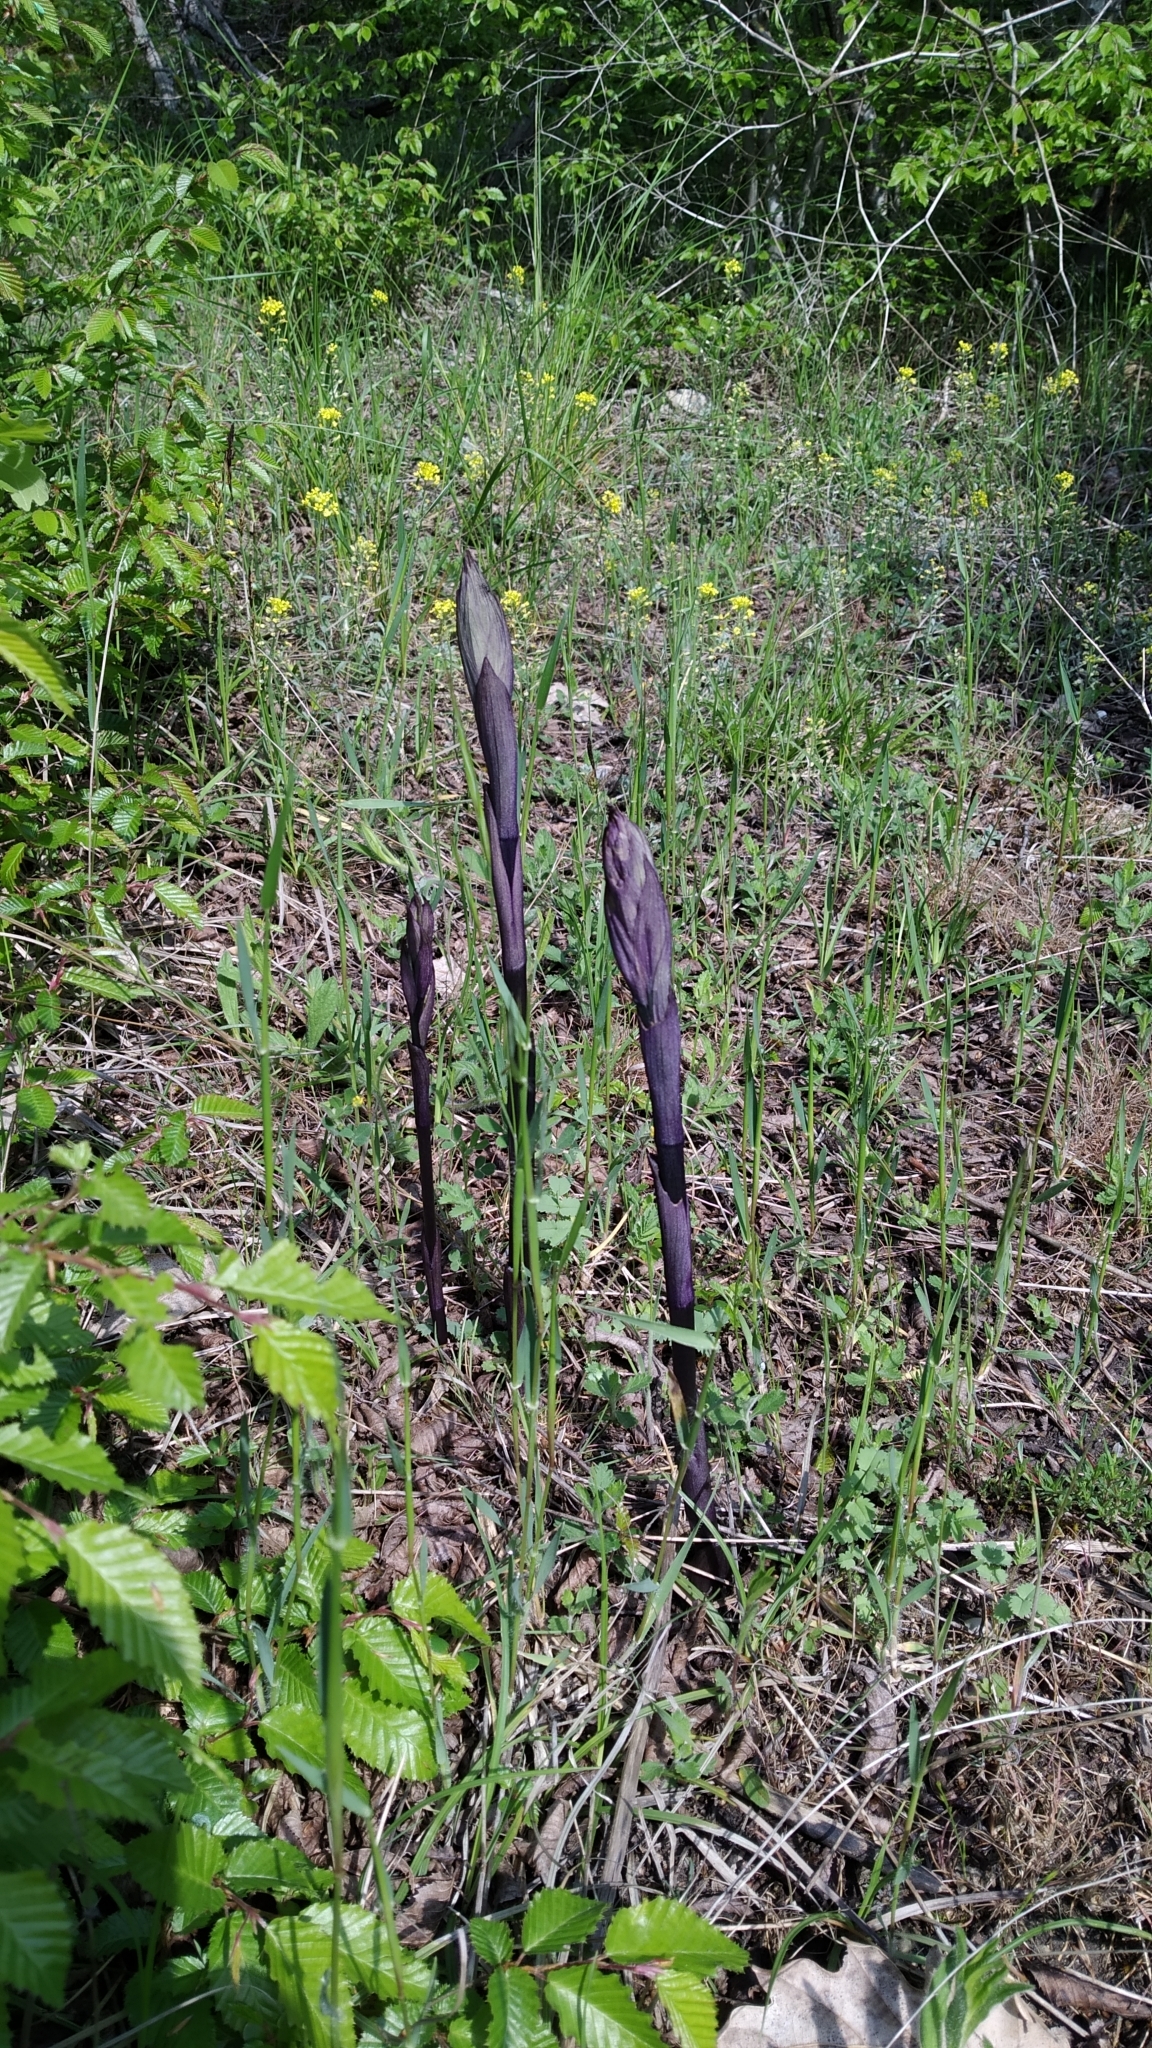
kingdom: Plantae
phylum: Tracheophyta
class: Liliopsida
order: Asparagales
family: Orchidaceae
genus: Limodorum
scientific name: Limodorum abortivum
